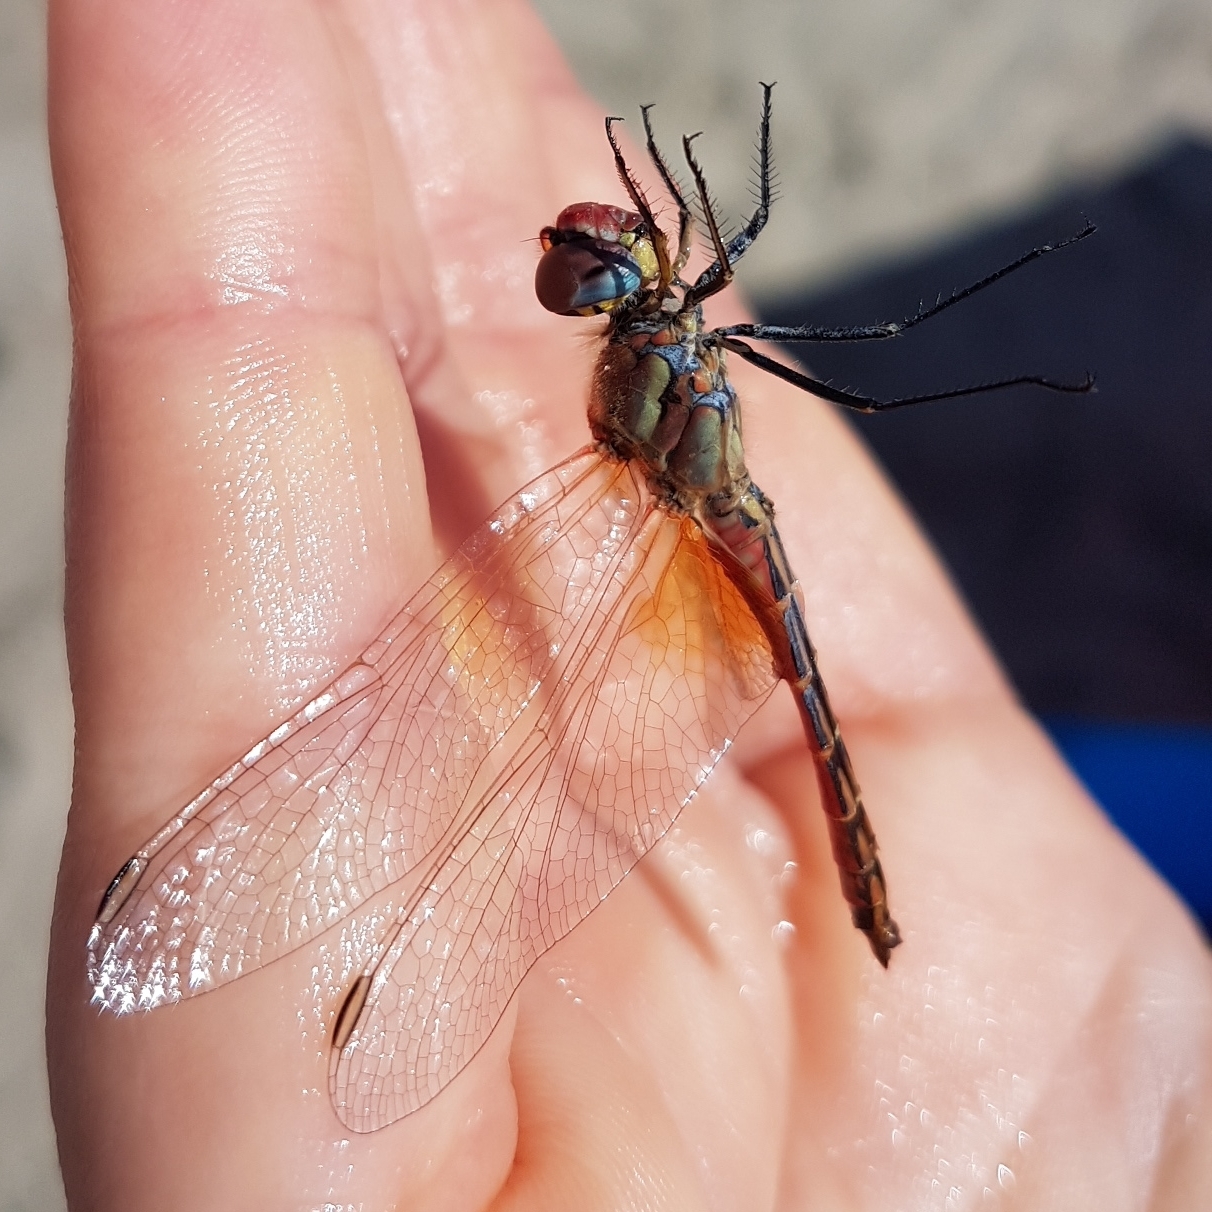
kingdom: Animalia
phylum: Arthropoda
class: Insecta
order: Odonata
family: Libellulidae
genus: Sympetrum
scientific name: Sympetrum fonscolombii
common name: Red-veined darter
